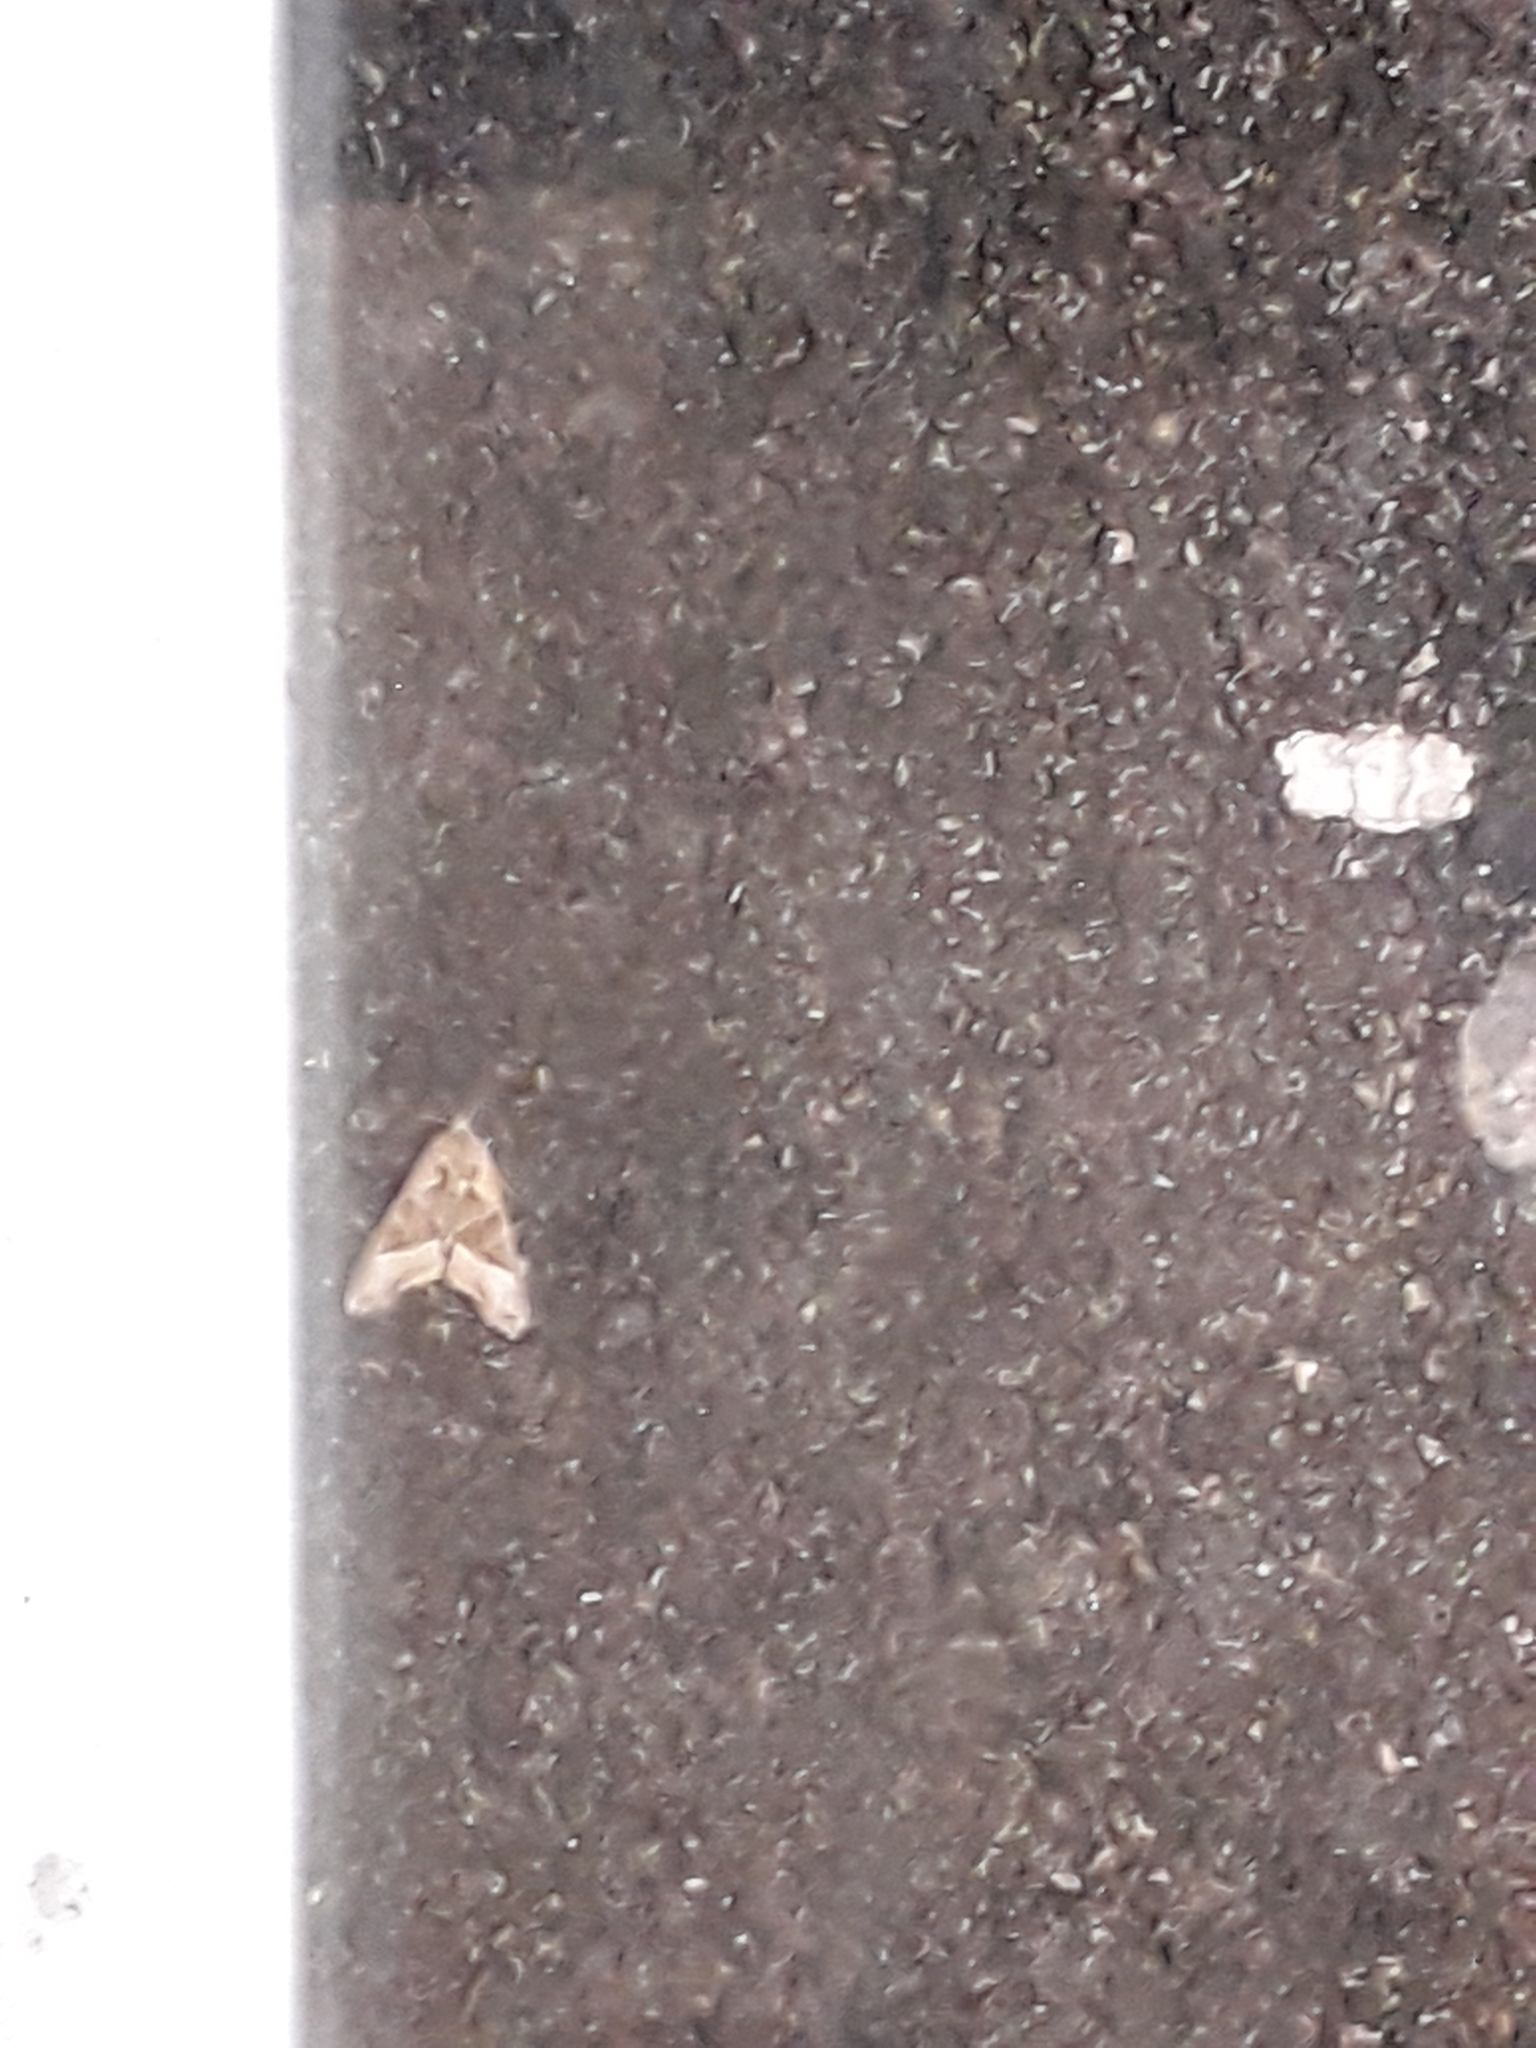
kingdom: Animalia
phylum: Arthropoda
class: Insecta
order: Lepidoptera
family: Noctuidae
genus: Phlogophora
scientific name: Phlogophora meticulosa
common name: Angle shades
